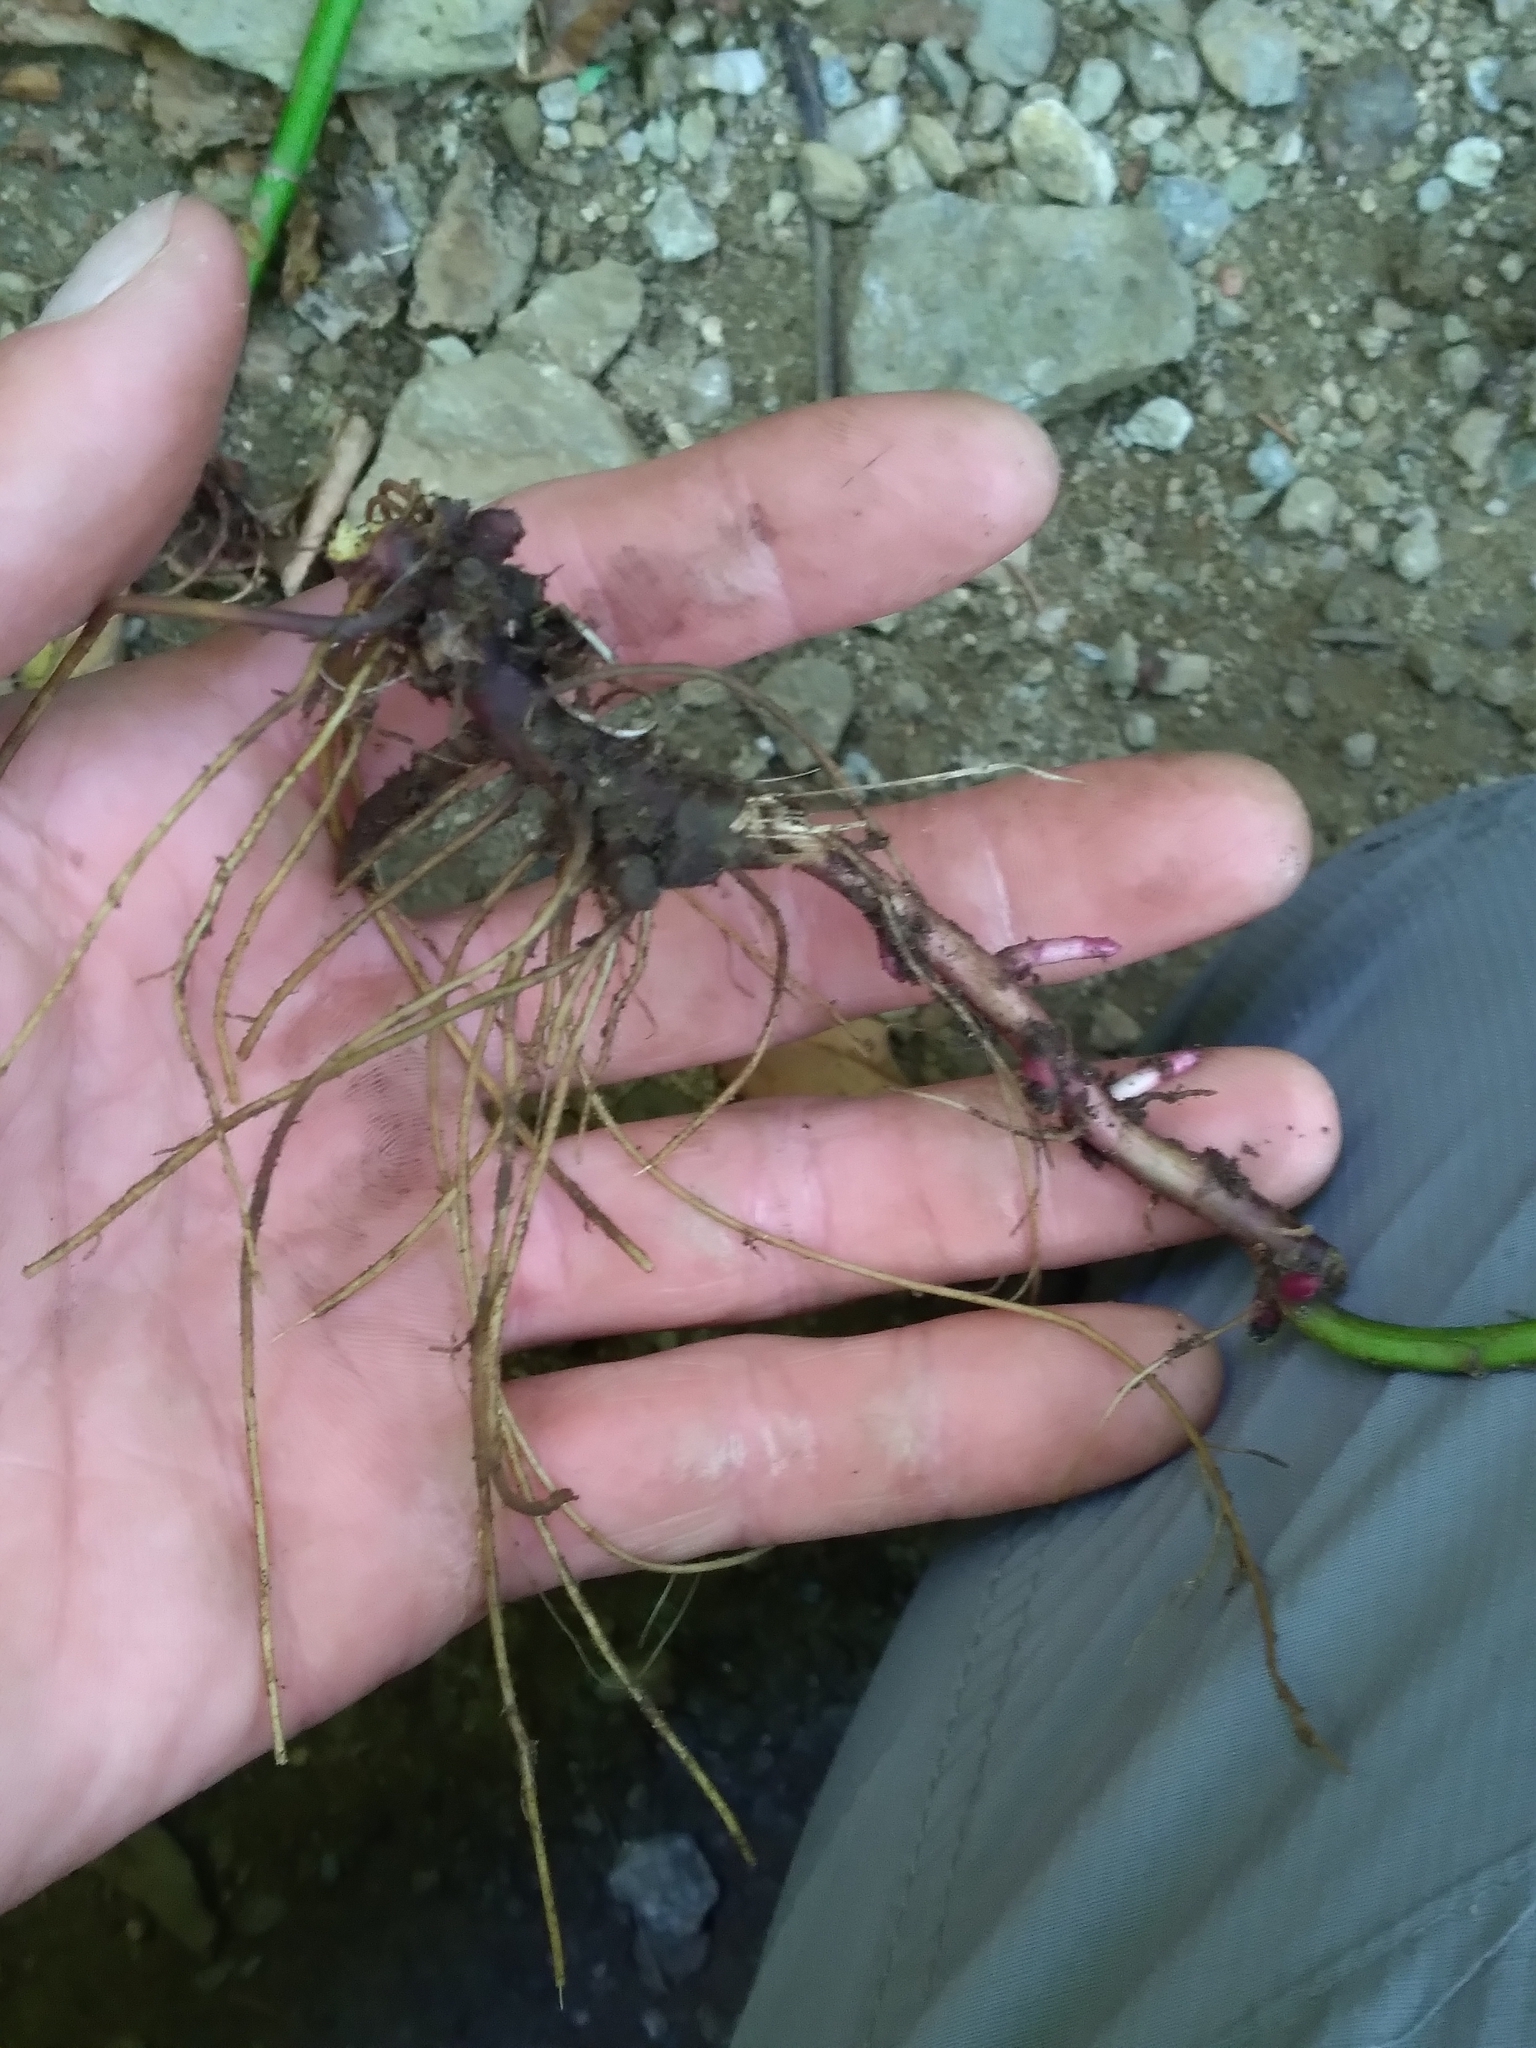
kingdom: Plantae
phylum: Tracheophyta
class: Magnoliopsida
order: Asterales
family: Asteraceae
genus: Solidago
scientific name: Solidago flexicaulis
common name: Zig-zag goldenrod
